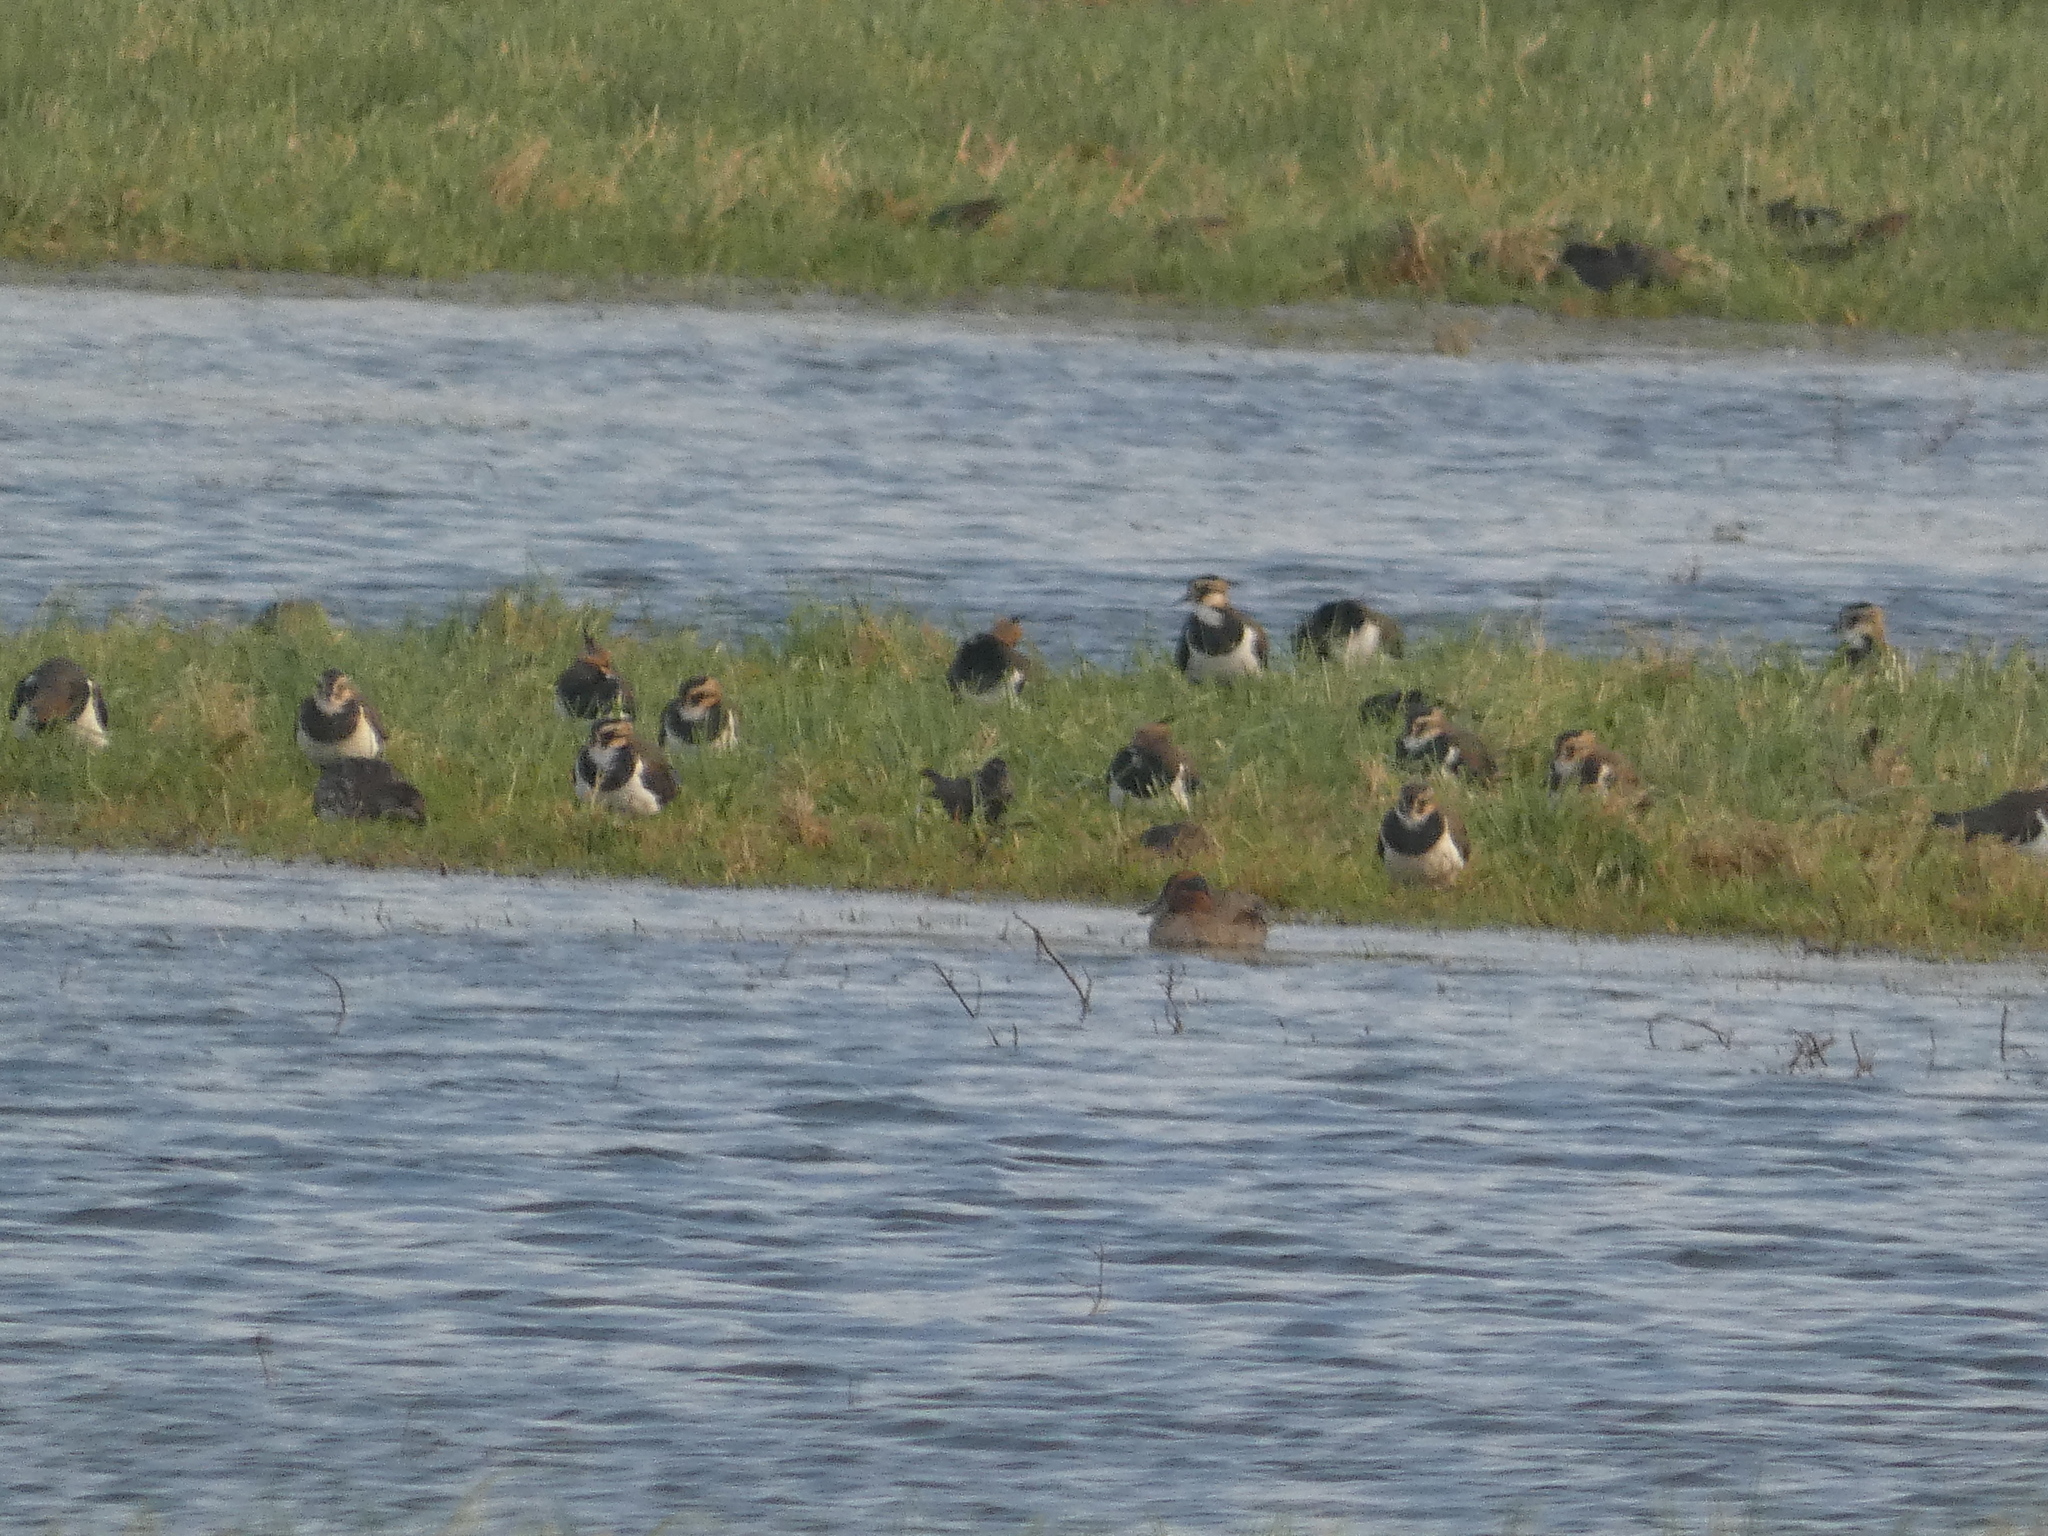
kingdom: Animalia
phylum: Chordata
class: Aves
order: Charadriiformes
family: Charadriidae
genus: Vanellus
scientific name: Vanellus vanellus
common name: Northern lapwing
